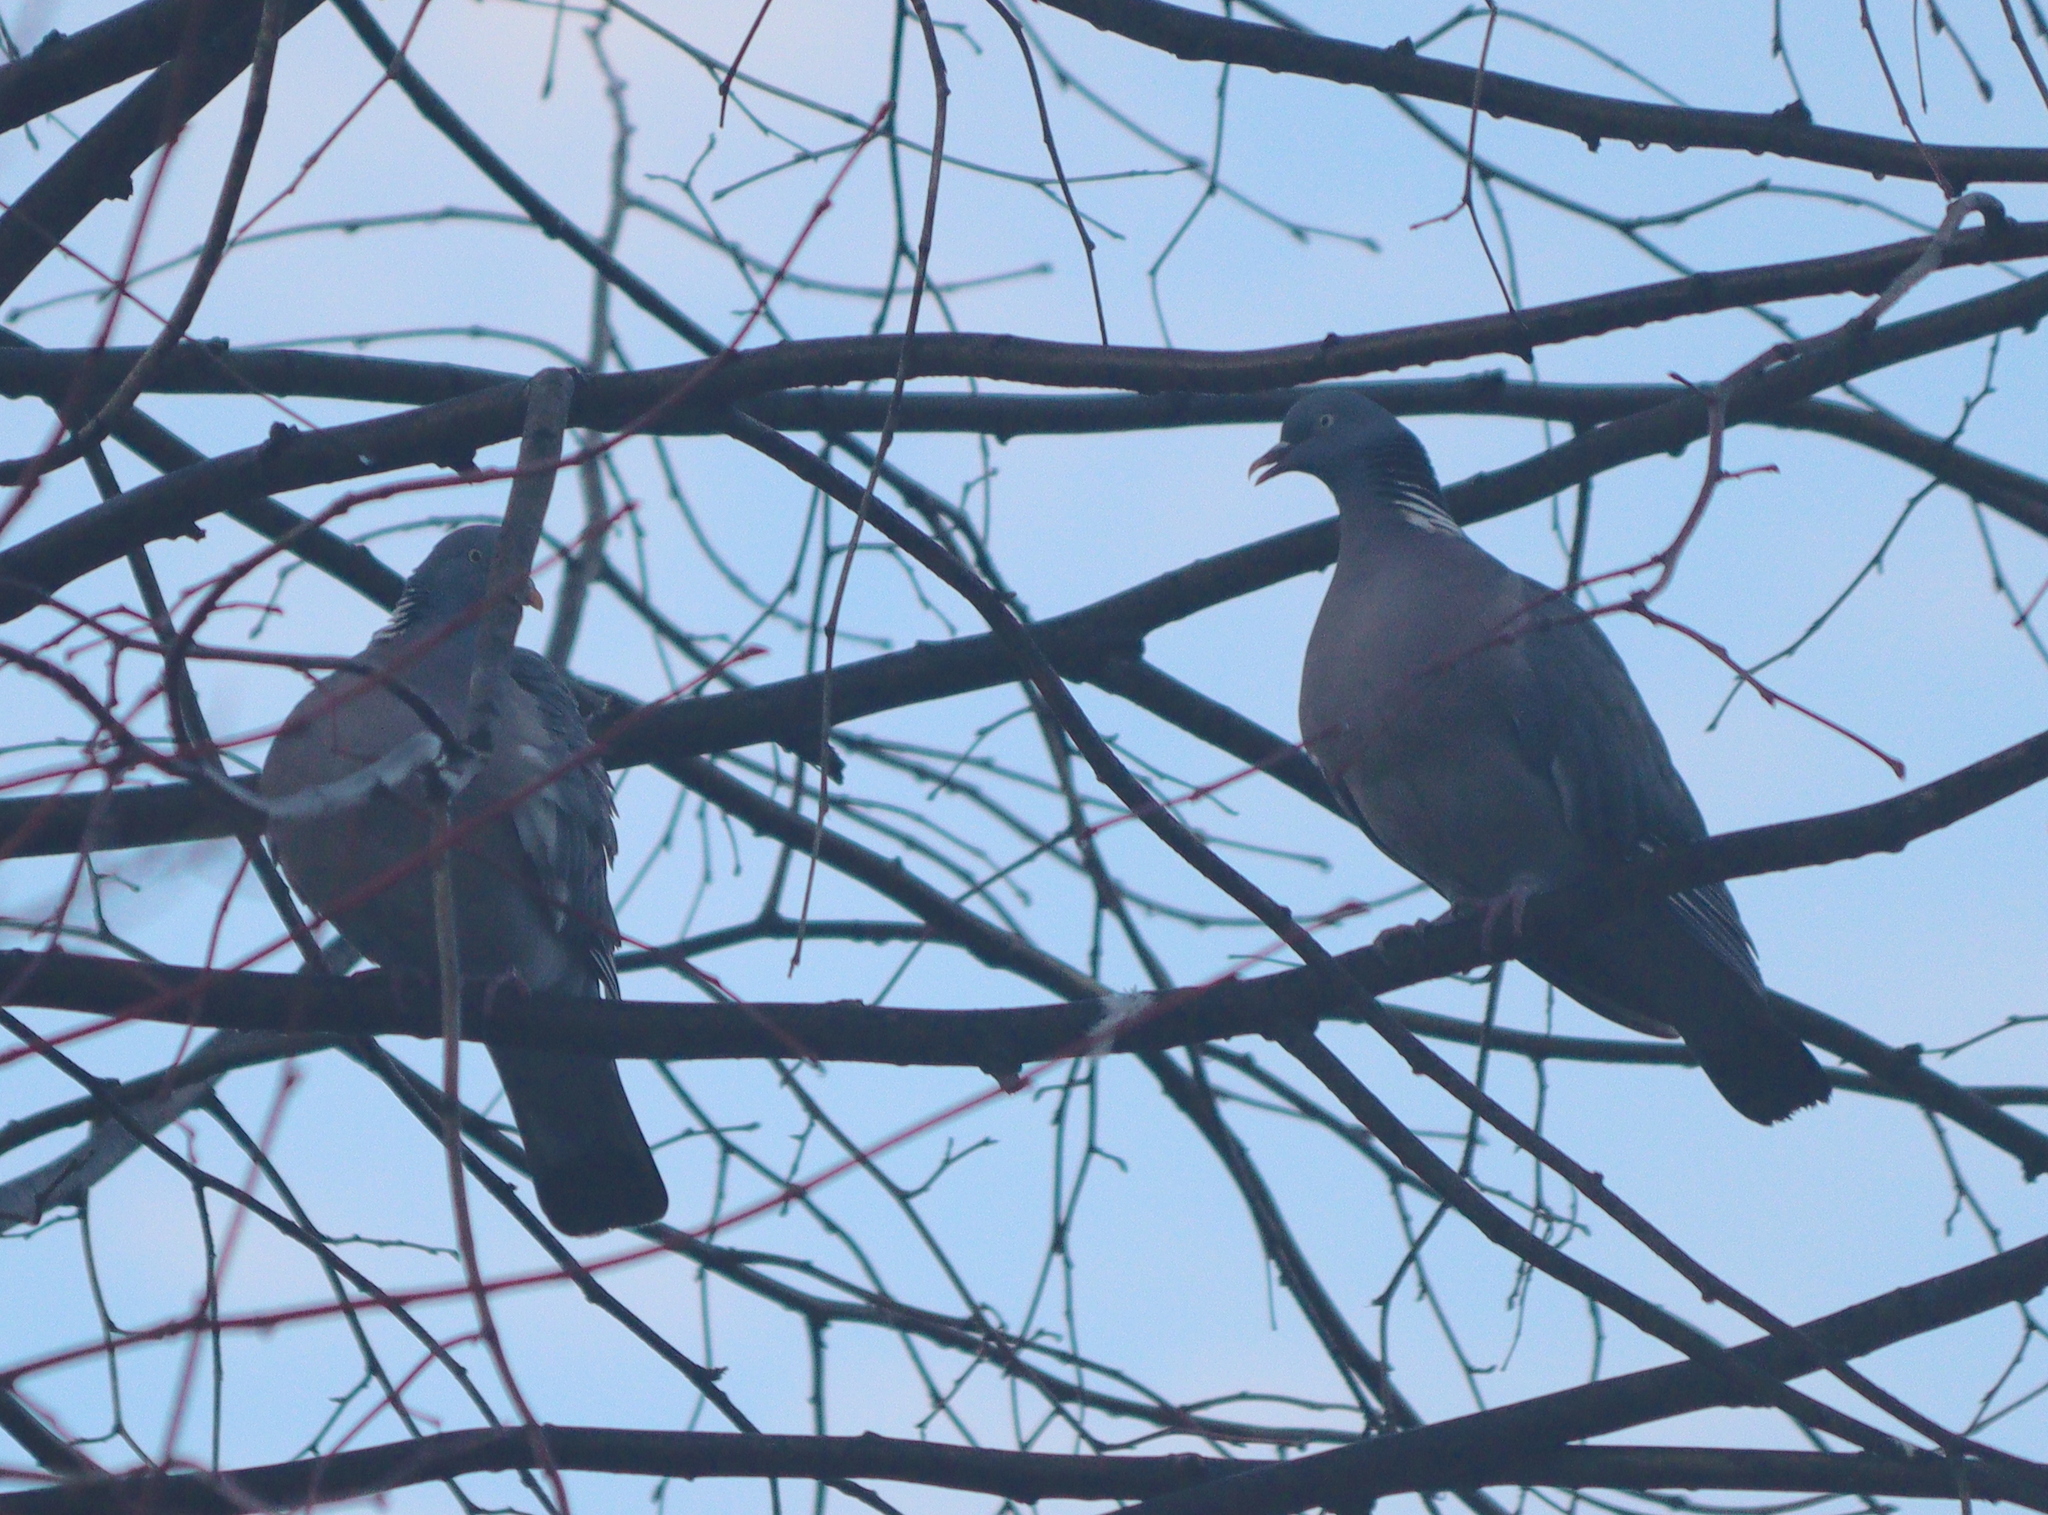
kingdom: Animalia
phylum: Chordata
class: Aves
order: Columbiformes
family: Columbidae
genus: Columba
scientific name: Columba palumbus
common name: Common wood pigeon
